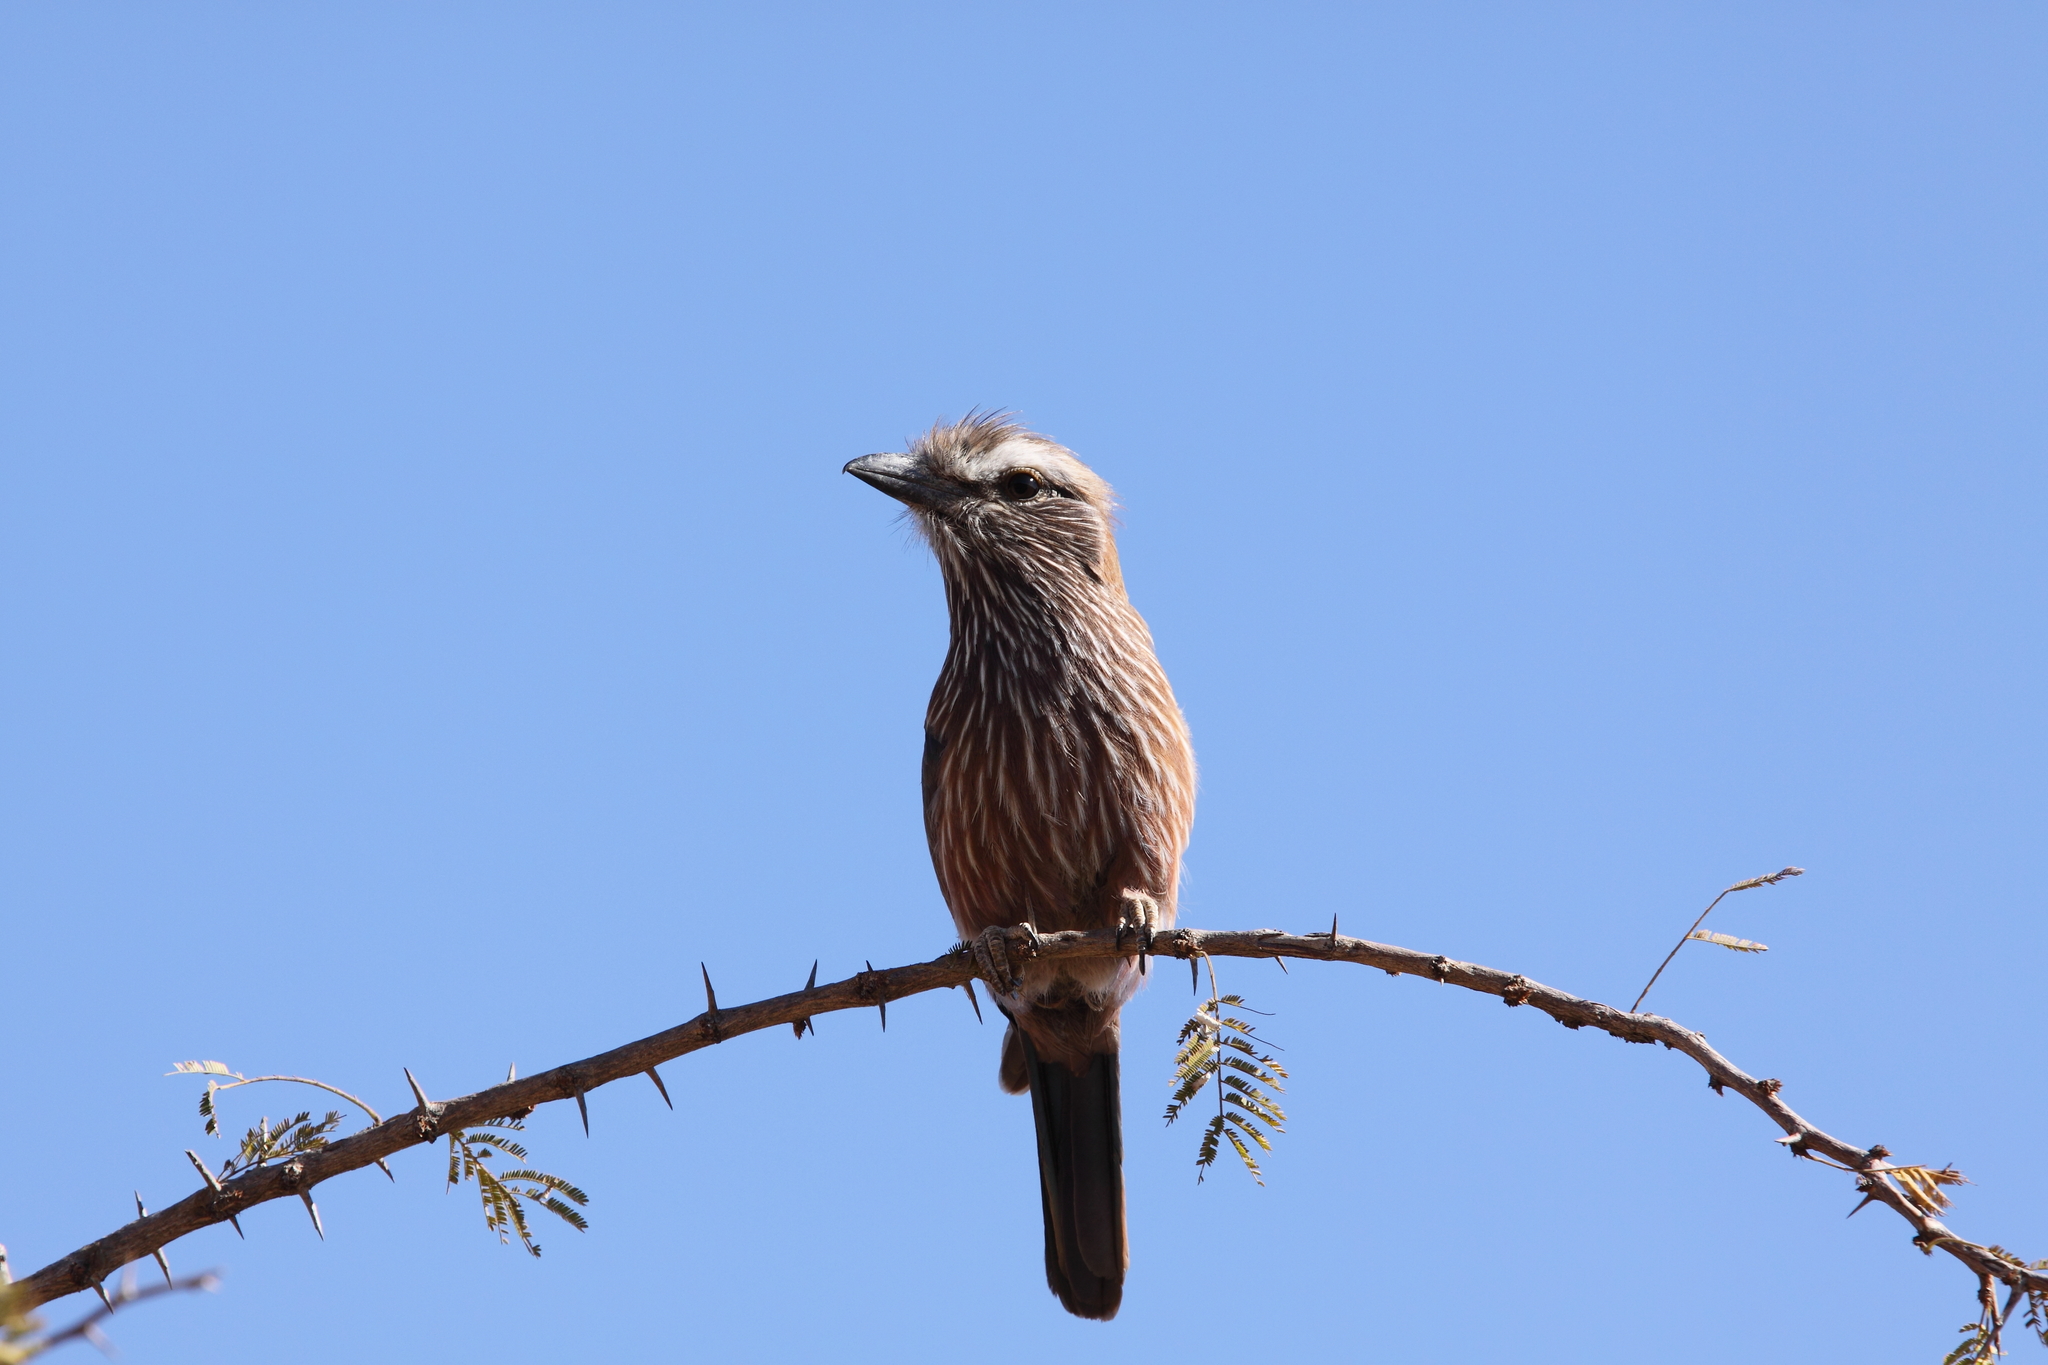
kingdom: Animalia
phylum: Chordata
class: Aves
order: Coraciiformes
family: Coraciidae
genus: Coracias
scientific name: Coracias naevius
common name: Purple roller
